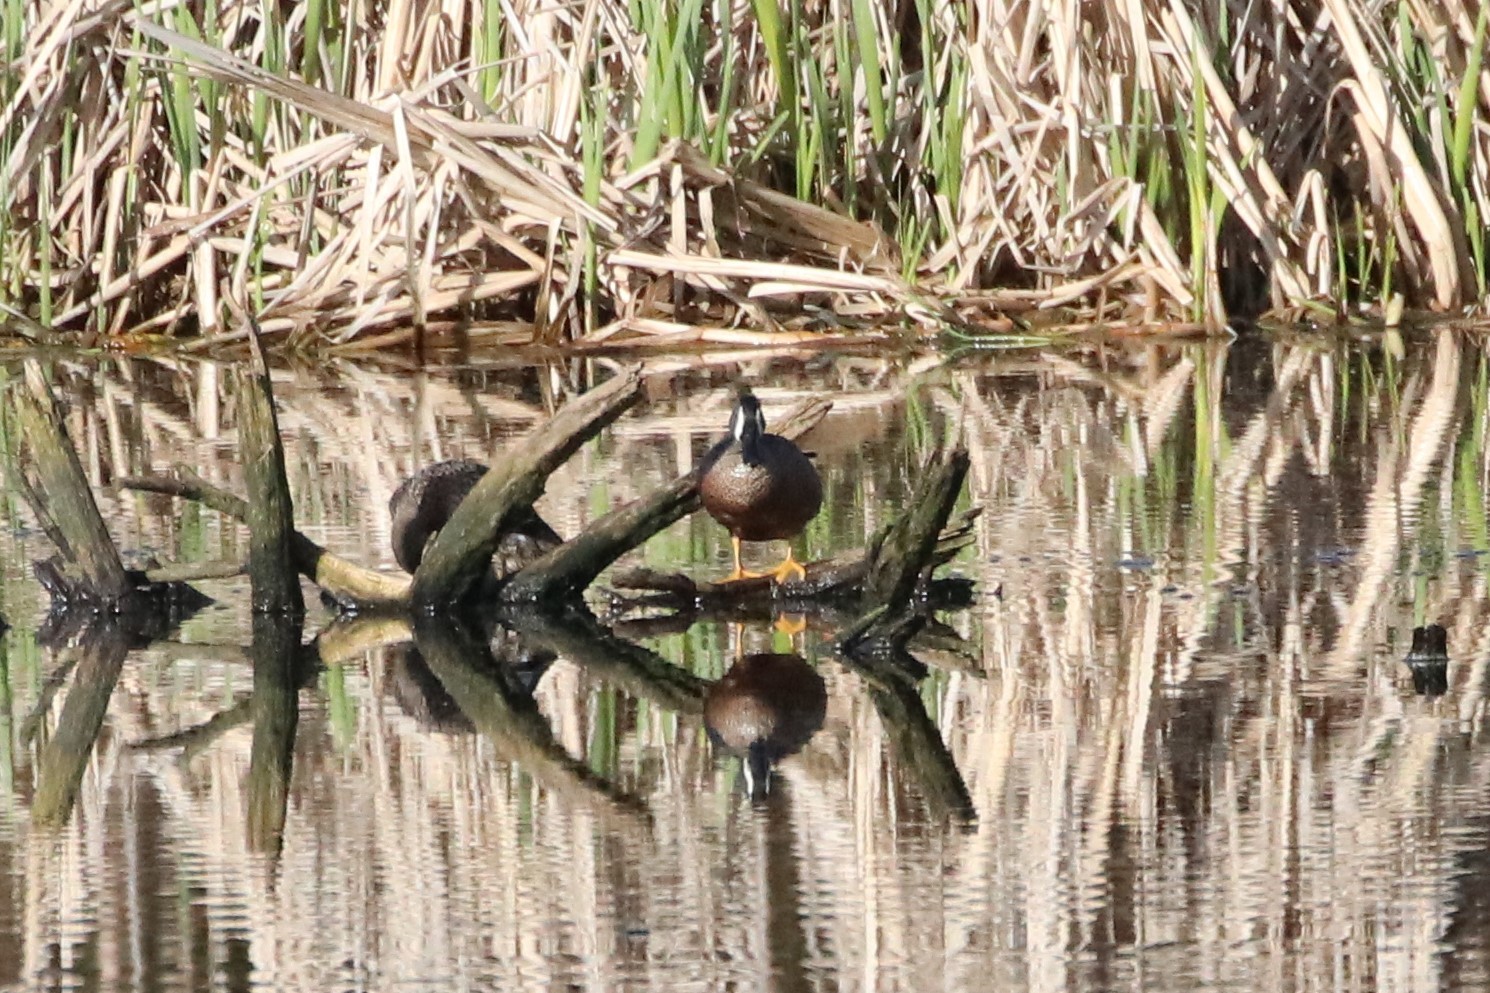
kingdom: Animalia
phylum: Chordata
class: Aves
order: Anseriformes
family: Anatidae
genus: Spatula
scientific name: Spatula discors
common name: Blue-winged teal
